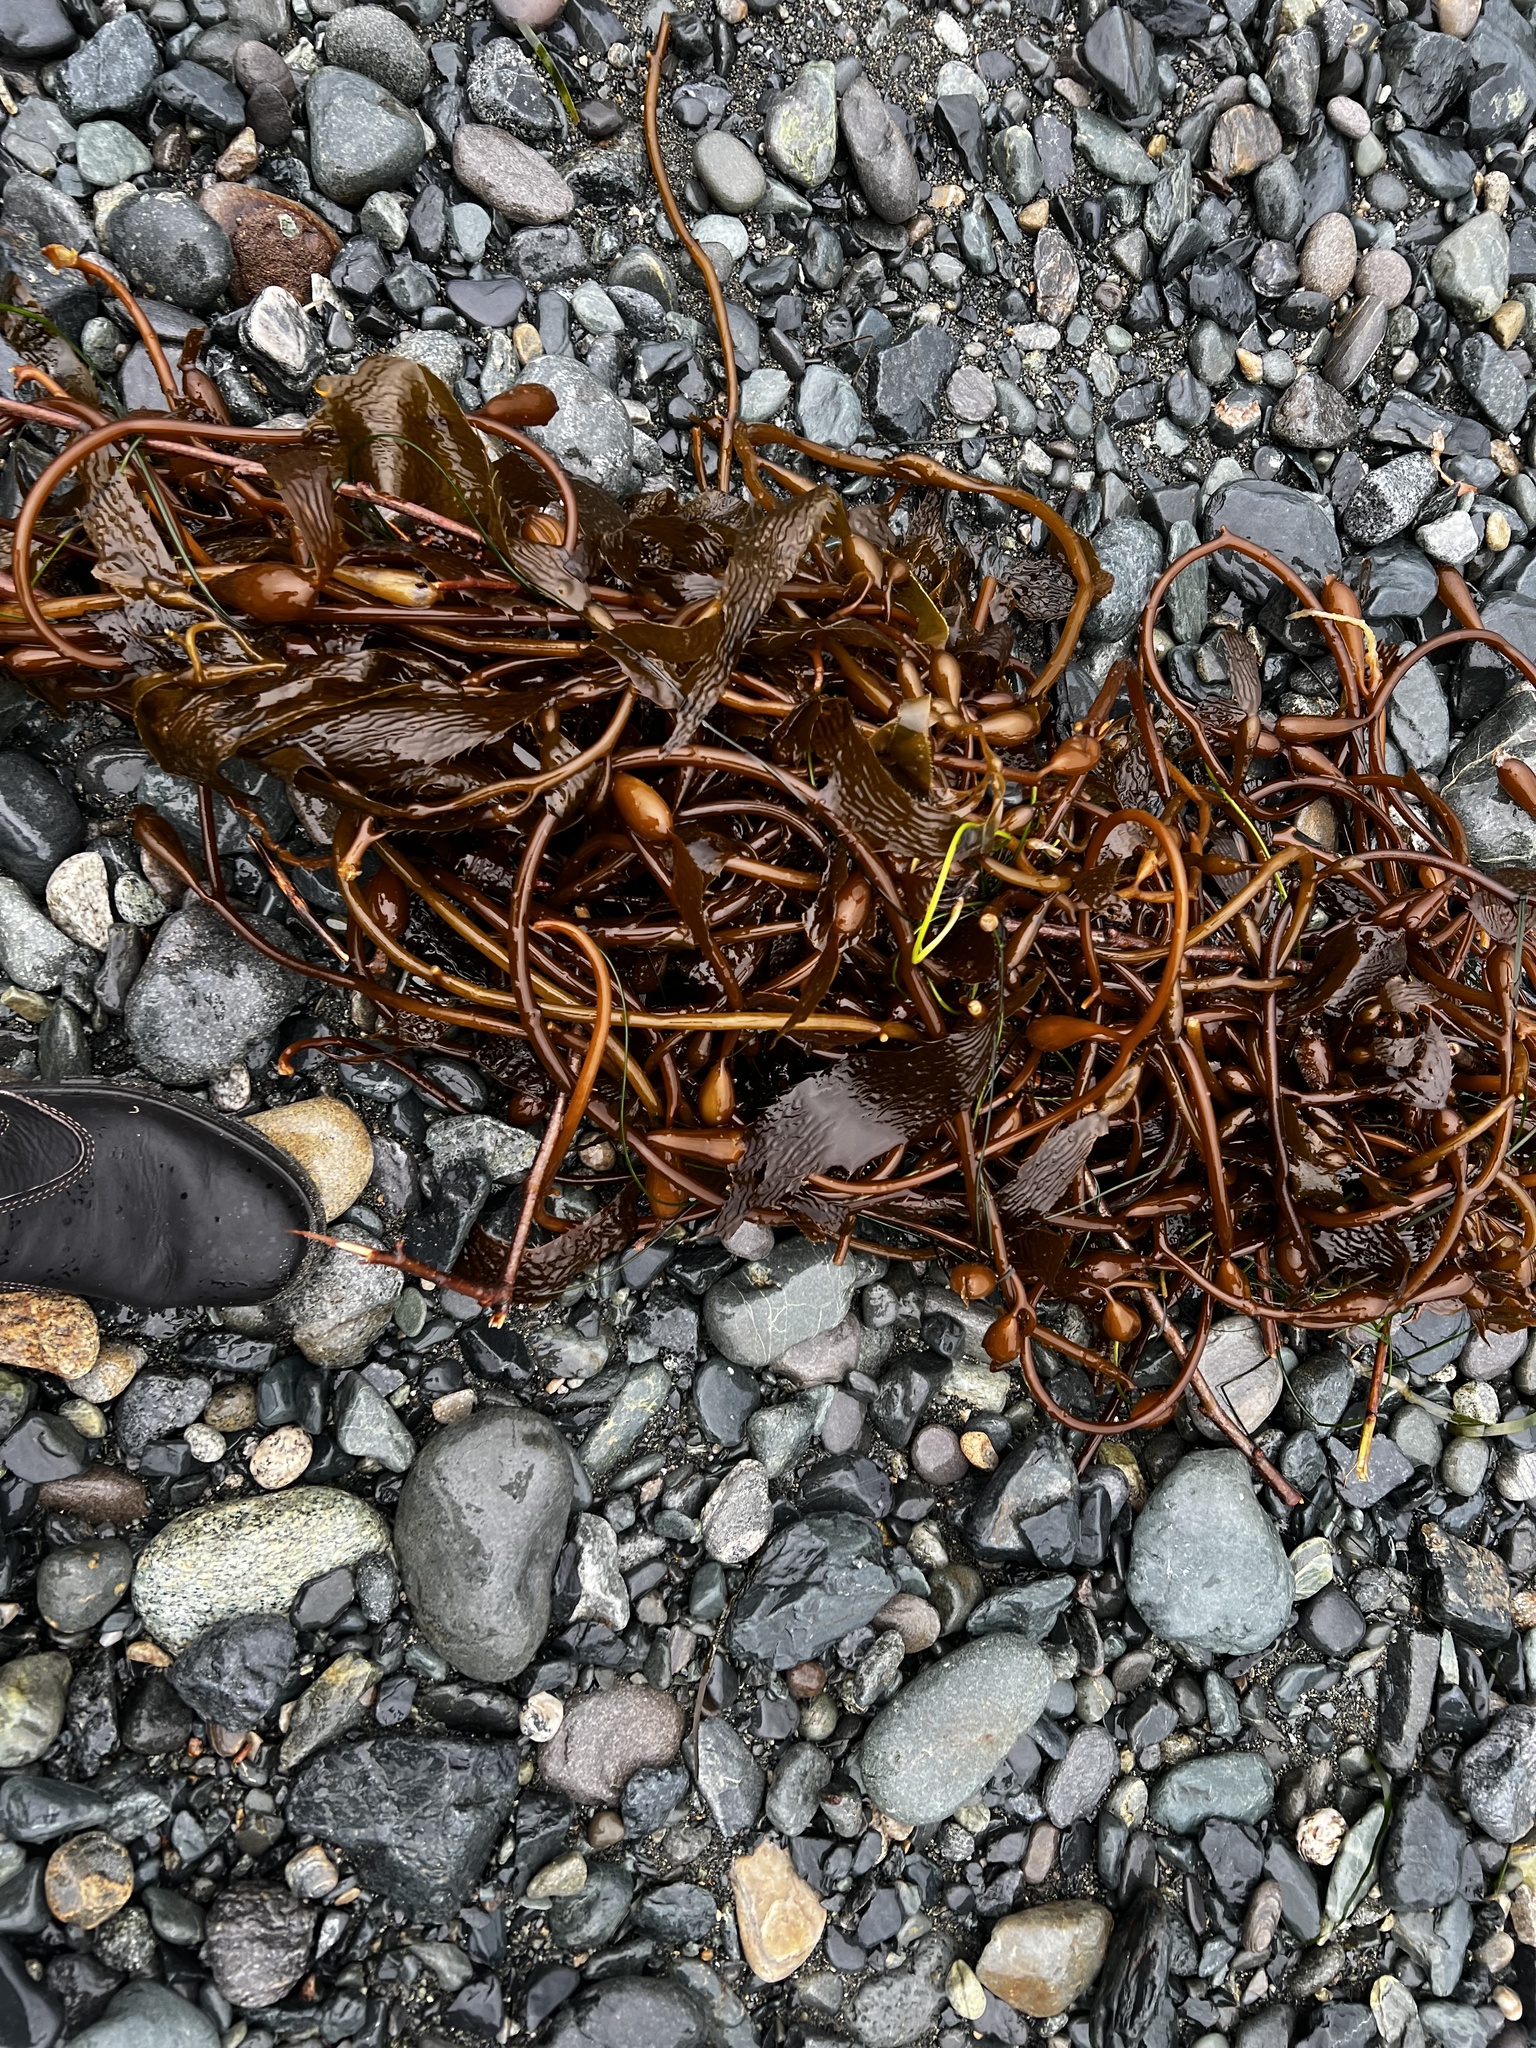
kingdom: Chromista
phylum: Ochrophyta
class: Phaeophyceae
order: Laminariales
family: Laminariaceae
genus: Macrocystis
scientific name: Macrocystis pyrifera
